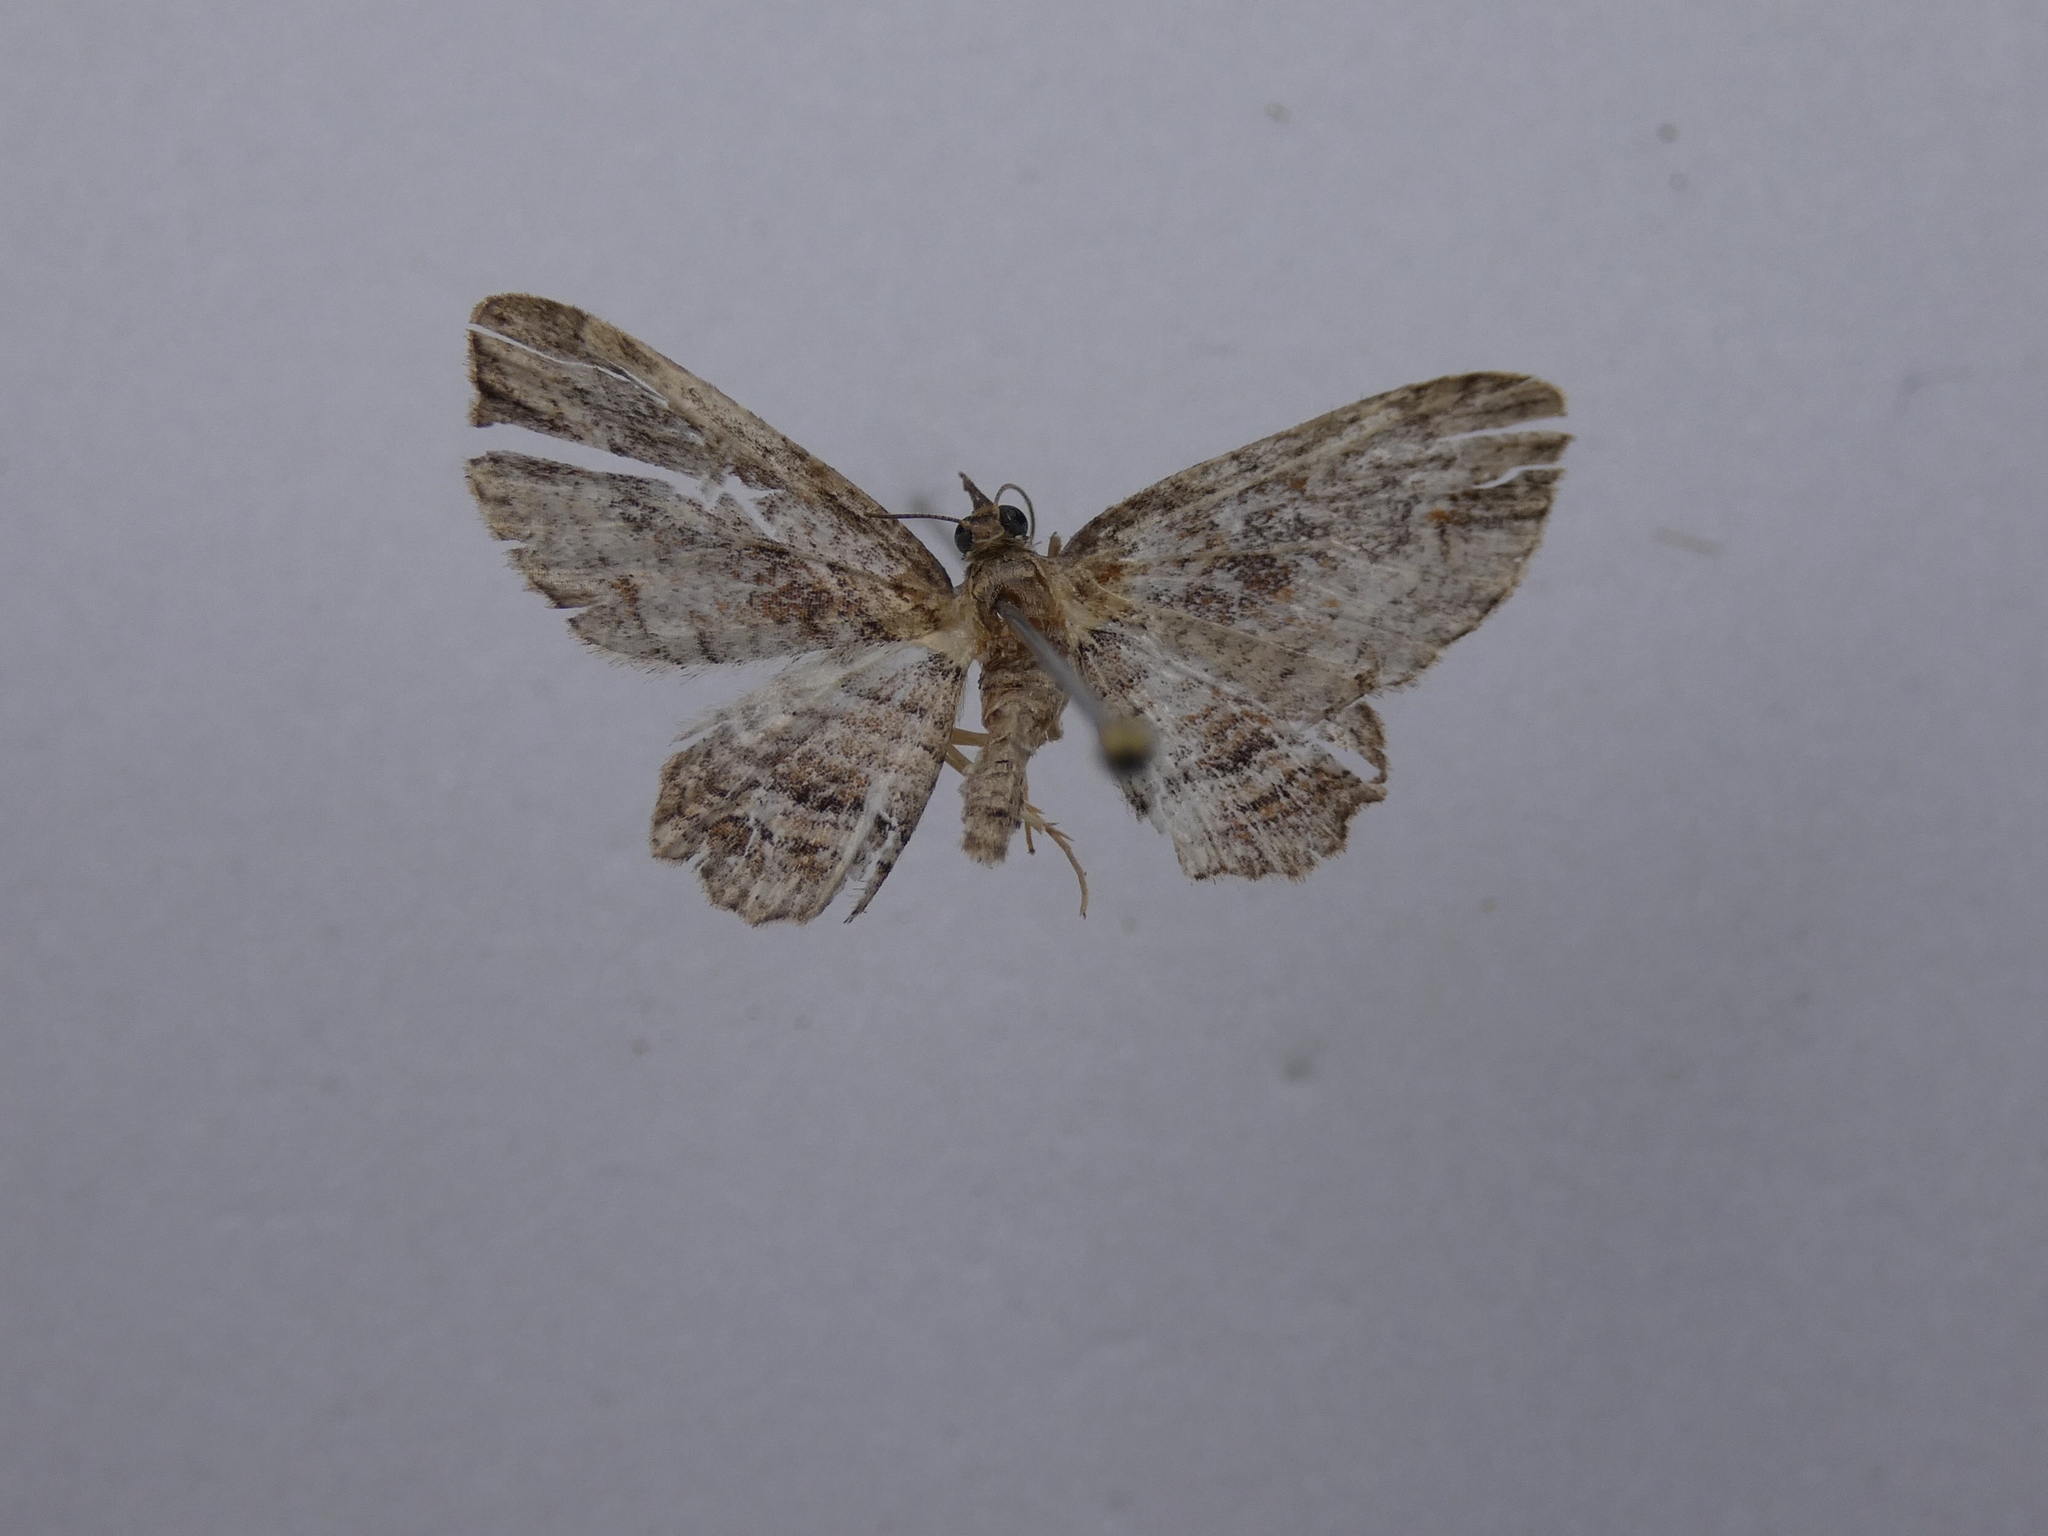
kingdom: Animalia
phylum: Arthropoda
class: Insecta
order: Lepidoptera
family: Geometridae
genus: Chloroclystis
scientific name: Chloroclystis filata
